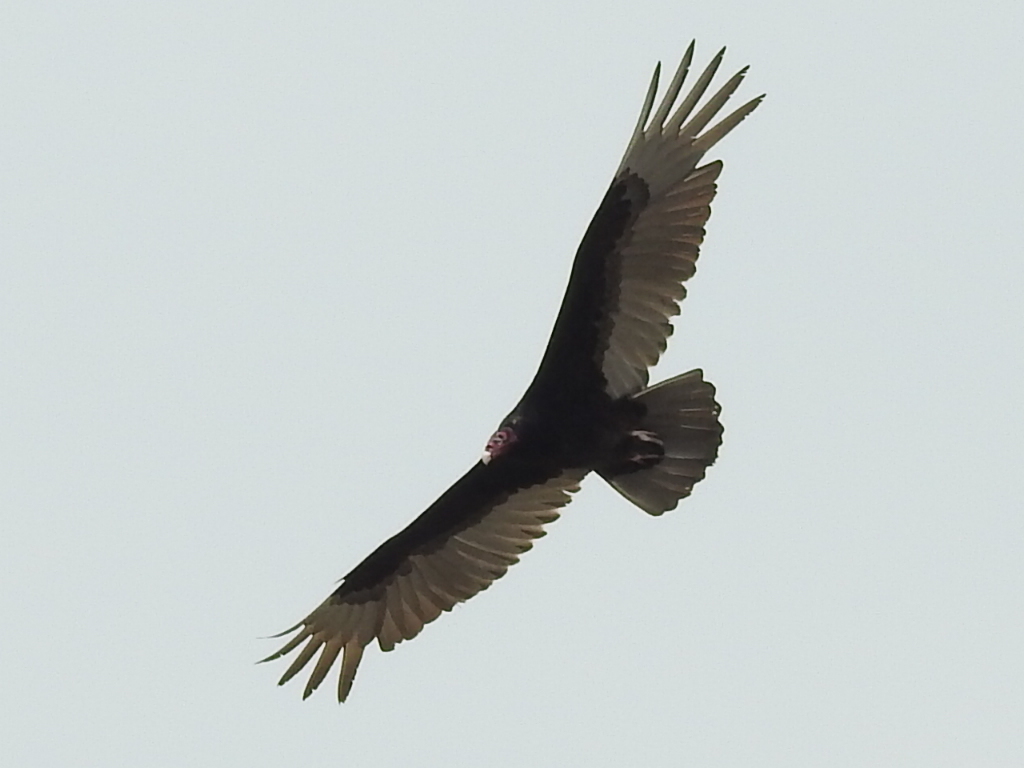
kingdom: Animalia
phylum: Chordata
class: Aves
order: Accipitriformes
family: Cathartidae
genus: Cathartes
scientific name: Cathartes aura
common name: Turkey vulture
